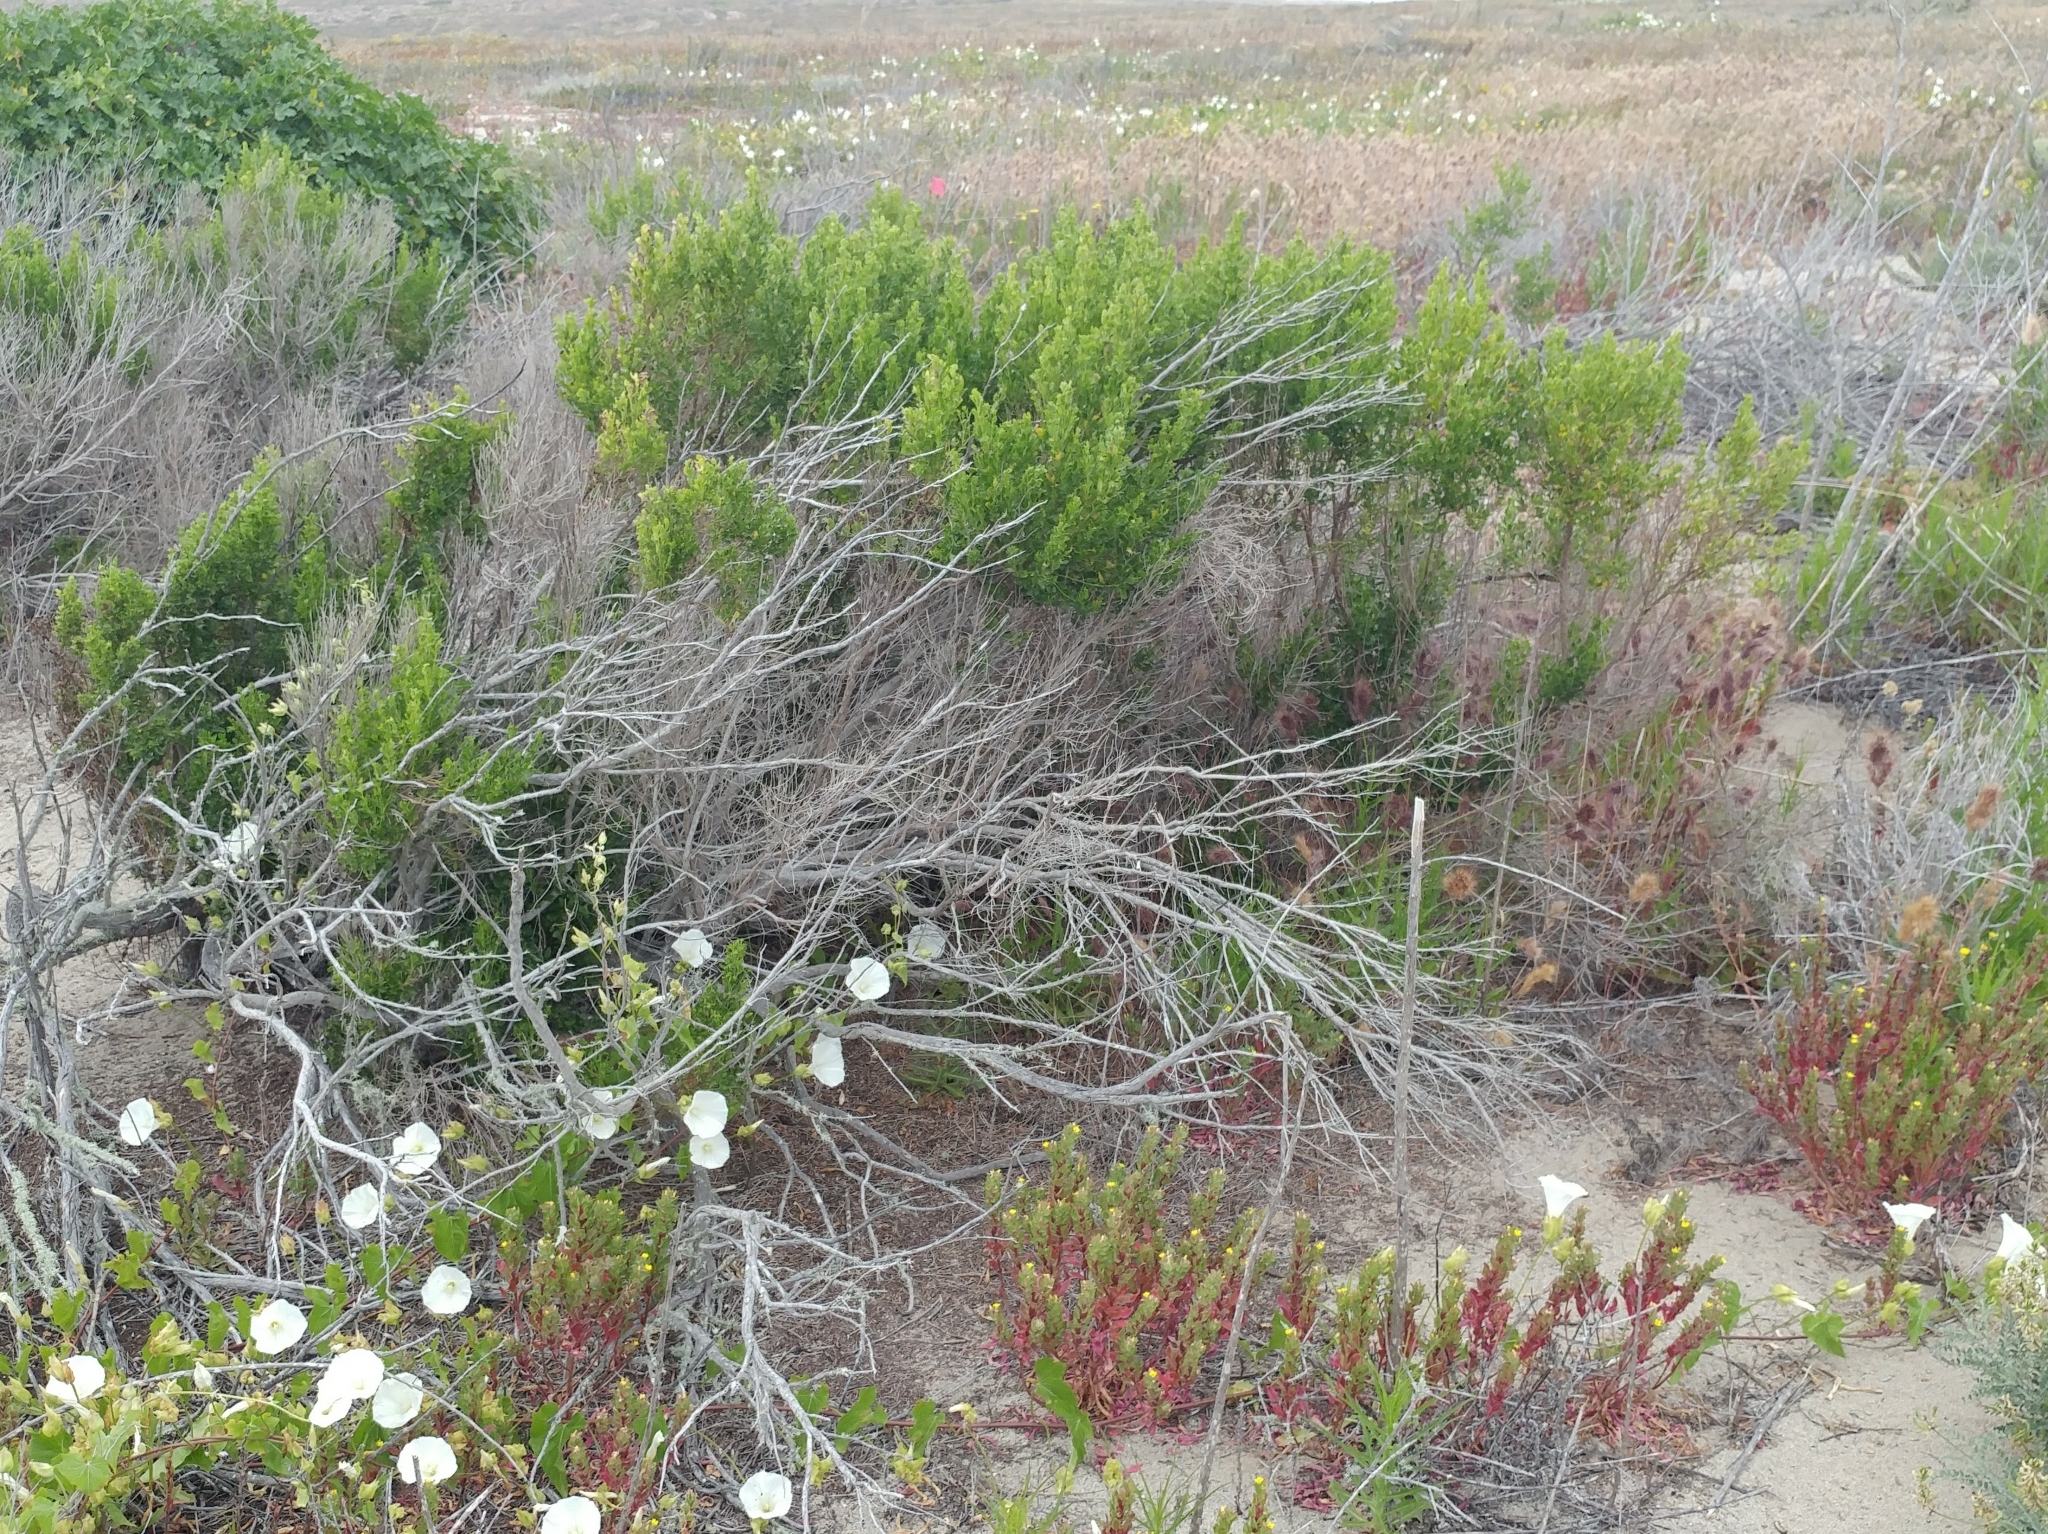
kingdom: Plantae
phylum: Tracheophyta
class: Magnoliopsida
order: Asterales
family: Asteraceae
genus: Baccharis
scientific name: Baccharis pilularis
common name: Coyotebrush
